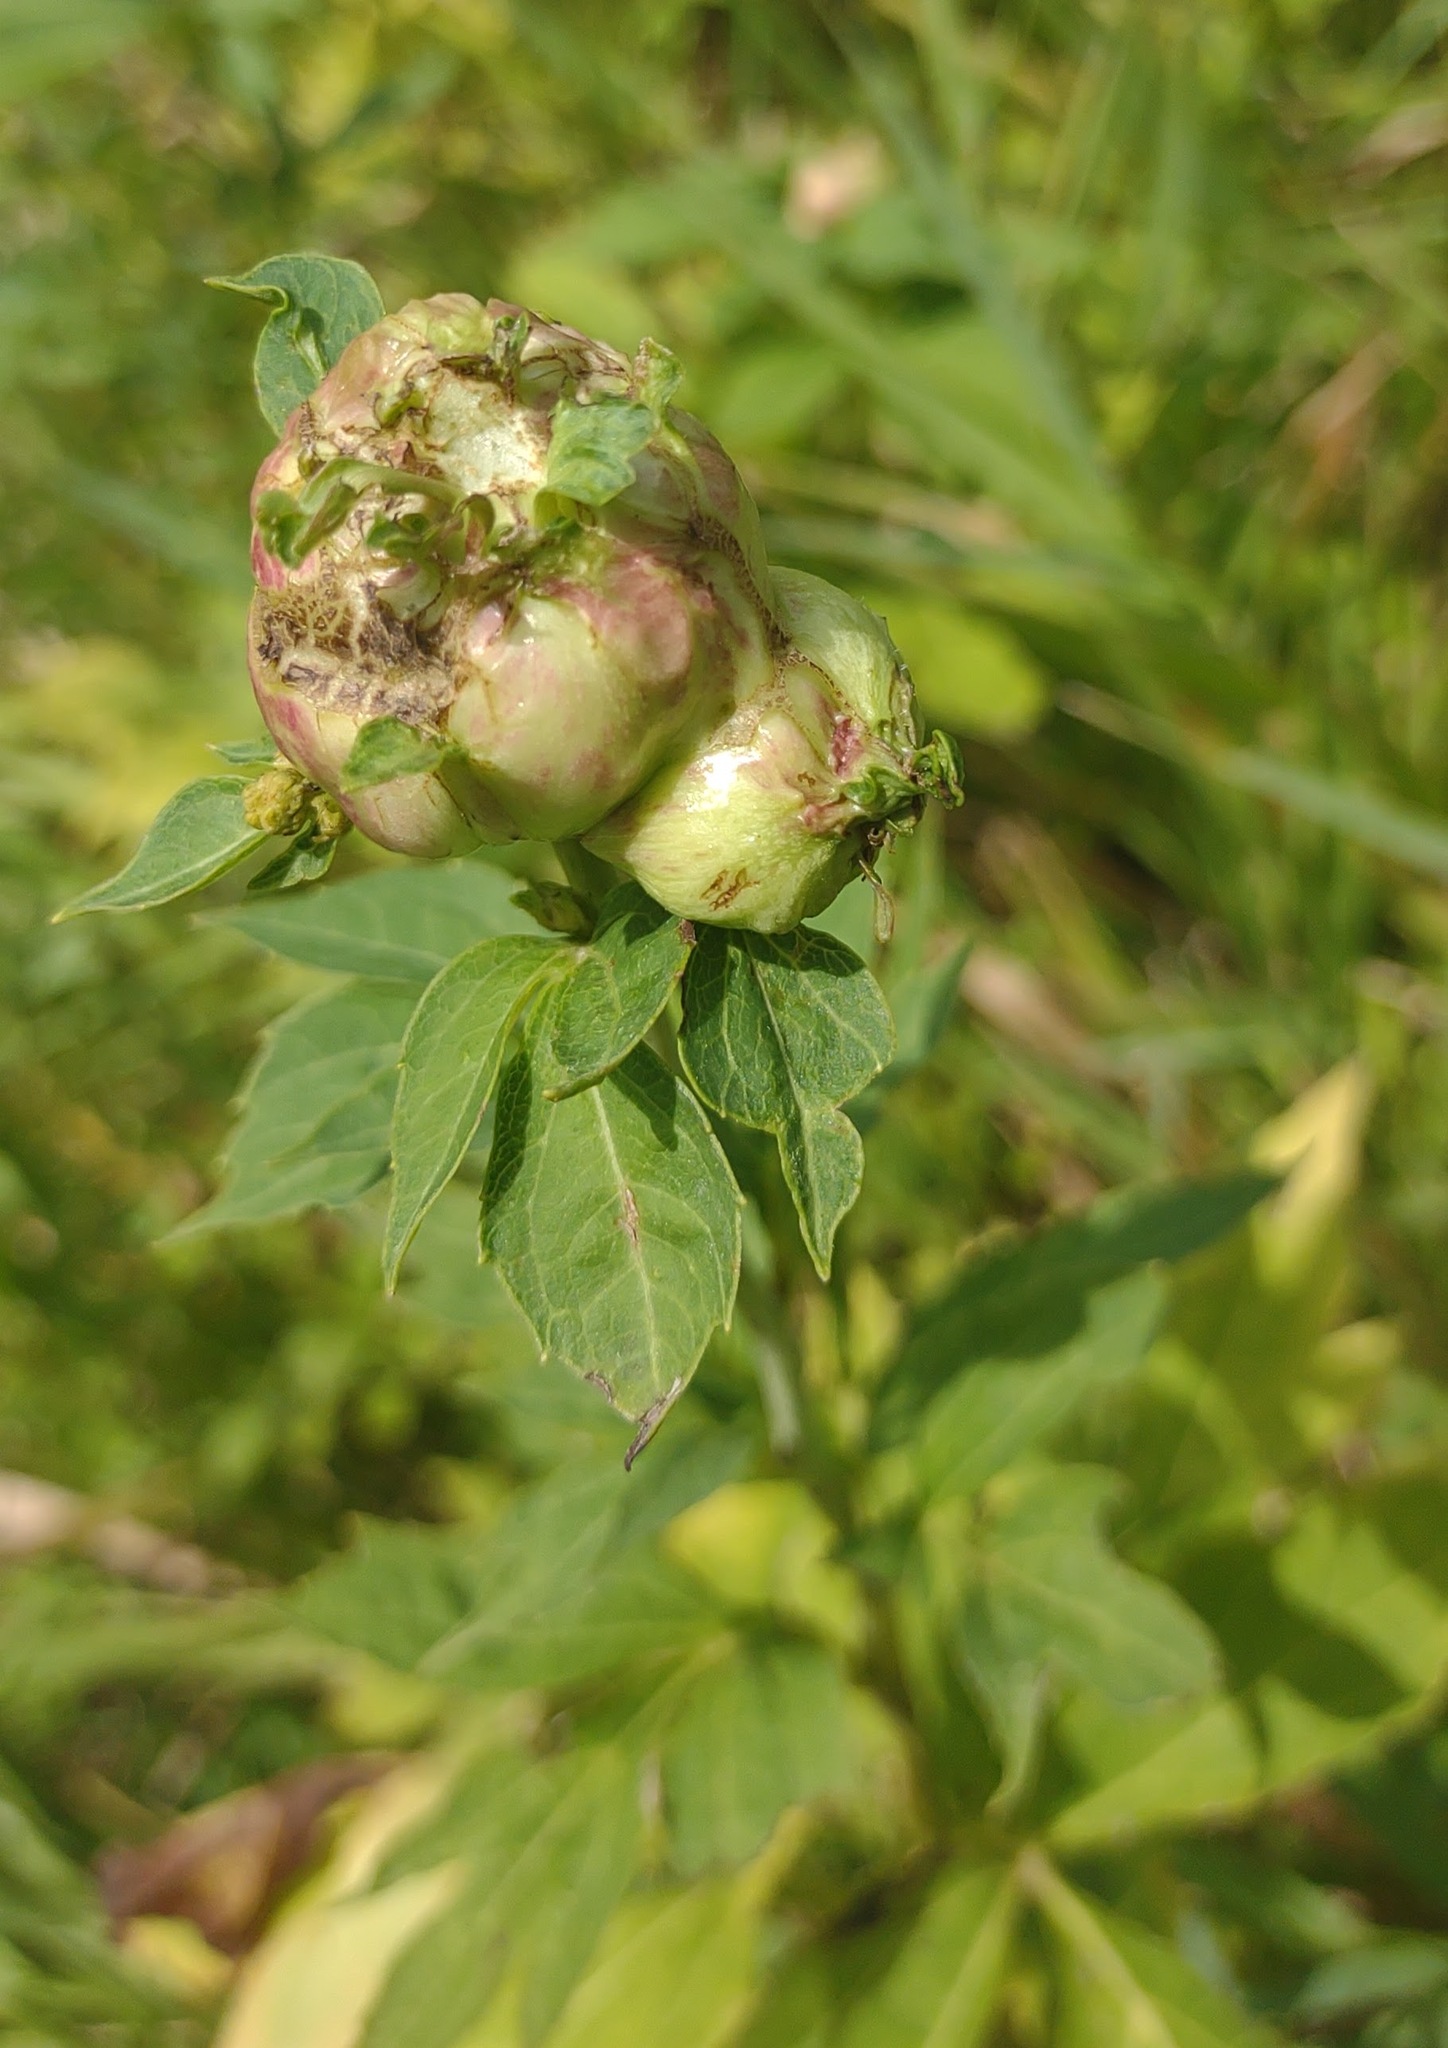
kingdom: Animalia
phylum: Arthropoda
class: Insecta
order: Diptera
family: Cecidomyiidae
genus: Asphondylia
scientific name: Asphondylia rudbeckiaeconspicua
